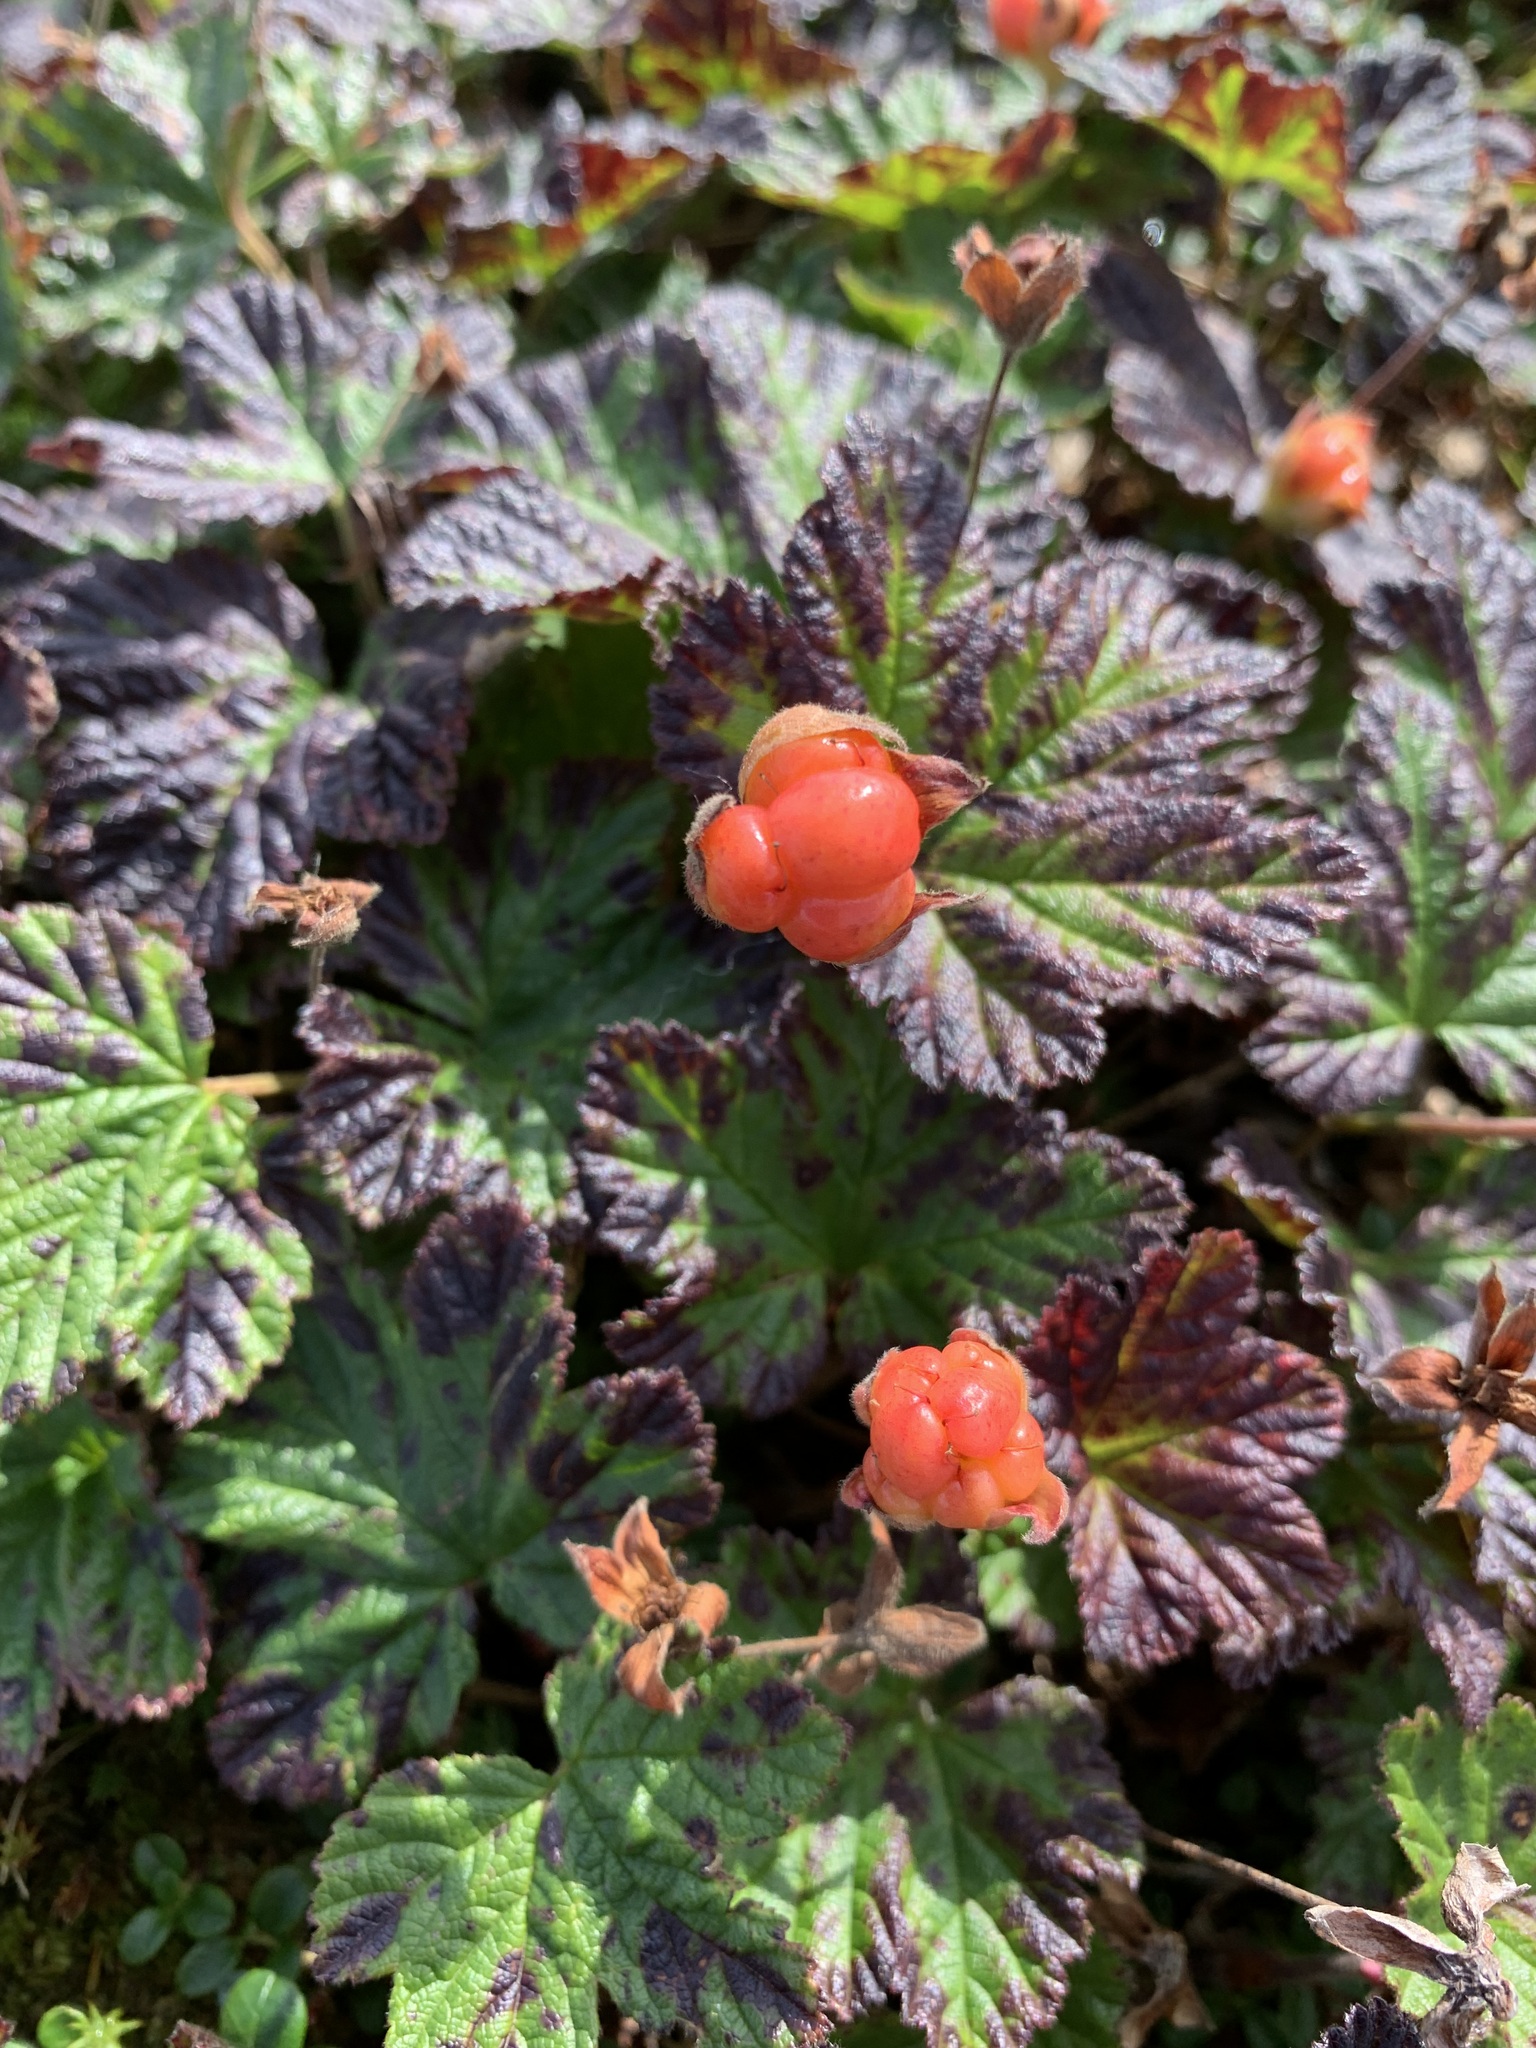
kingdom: Plantae
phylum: Tracheophyta
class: Magnoliopsida
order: Rosales
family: Rosaceae
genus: Rubus
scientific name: Rubus chamaemorus
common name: Cloudberry
